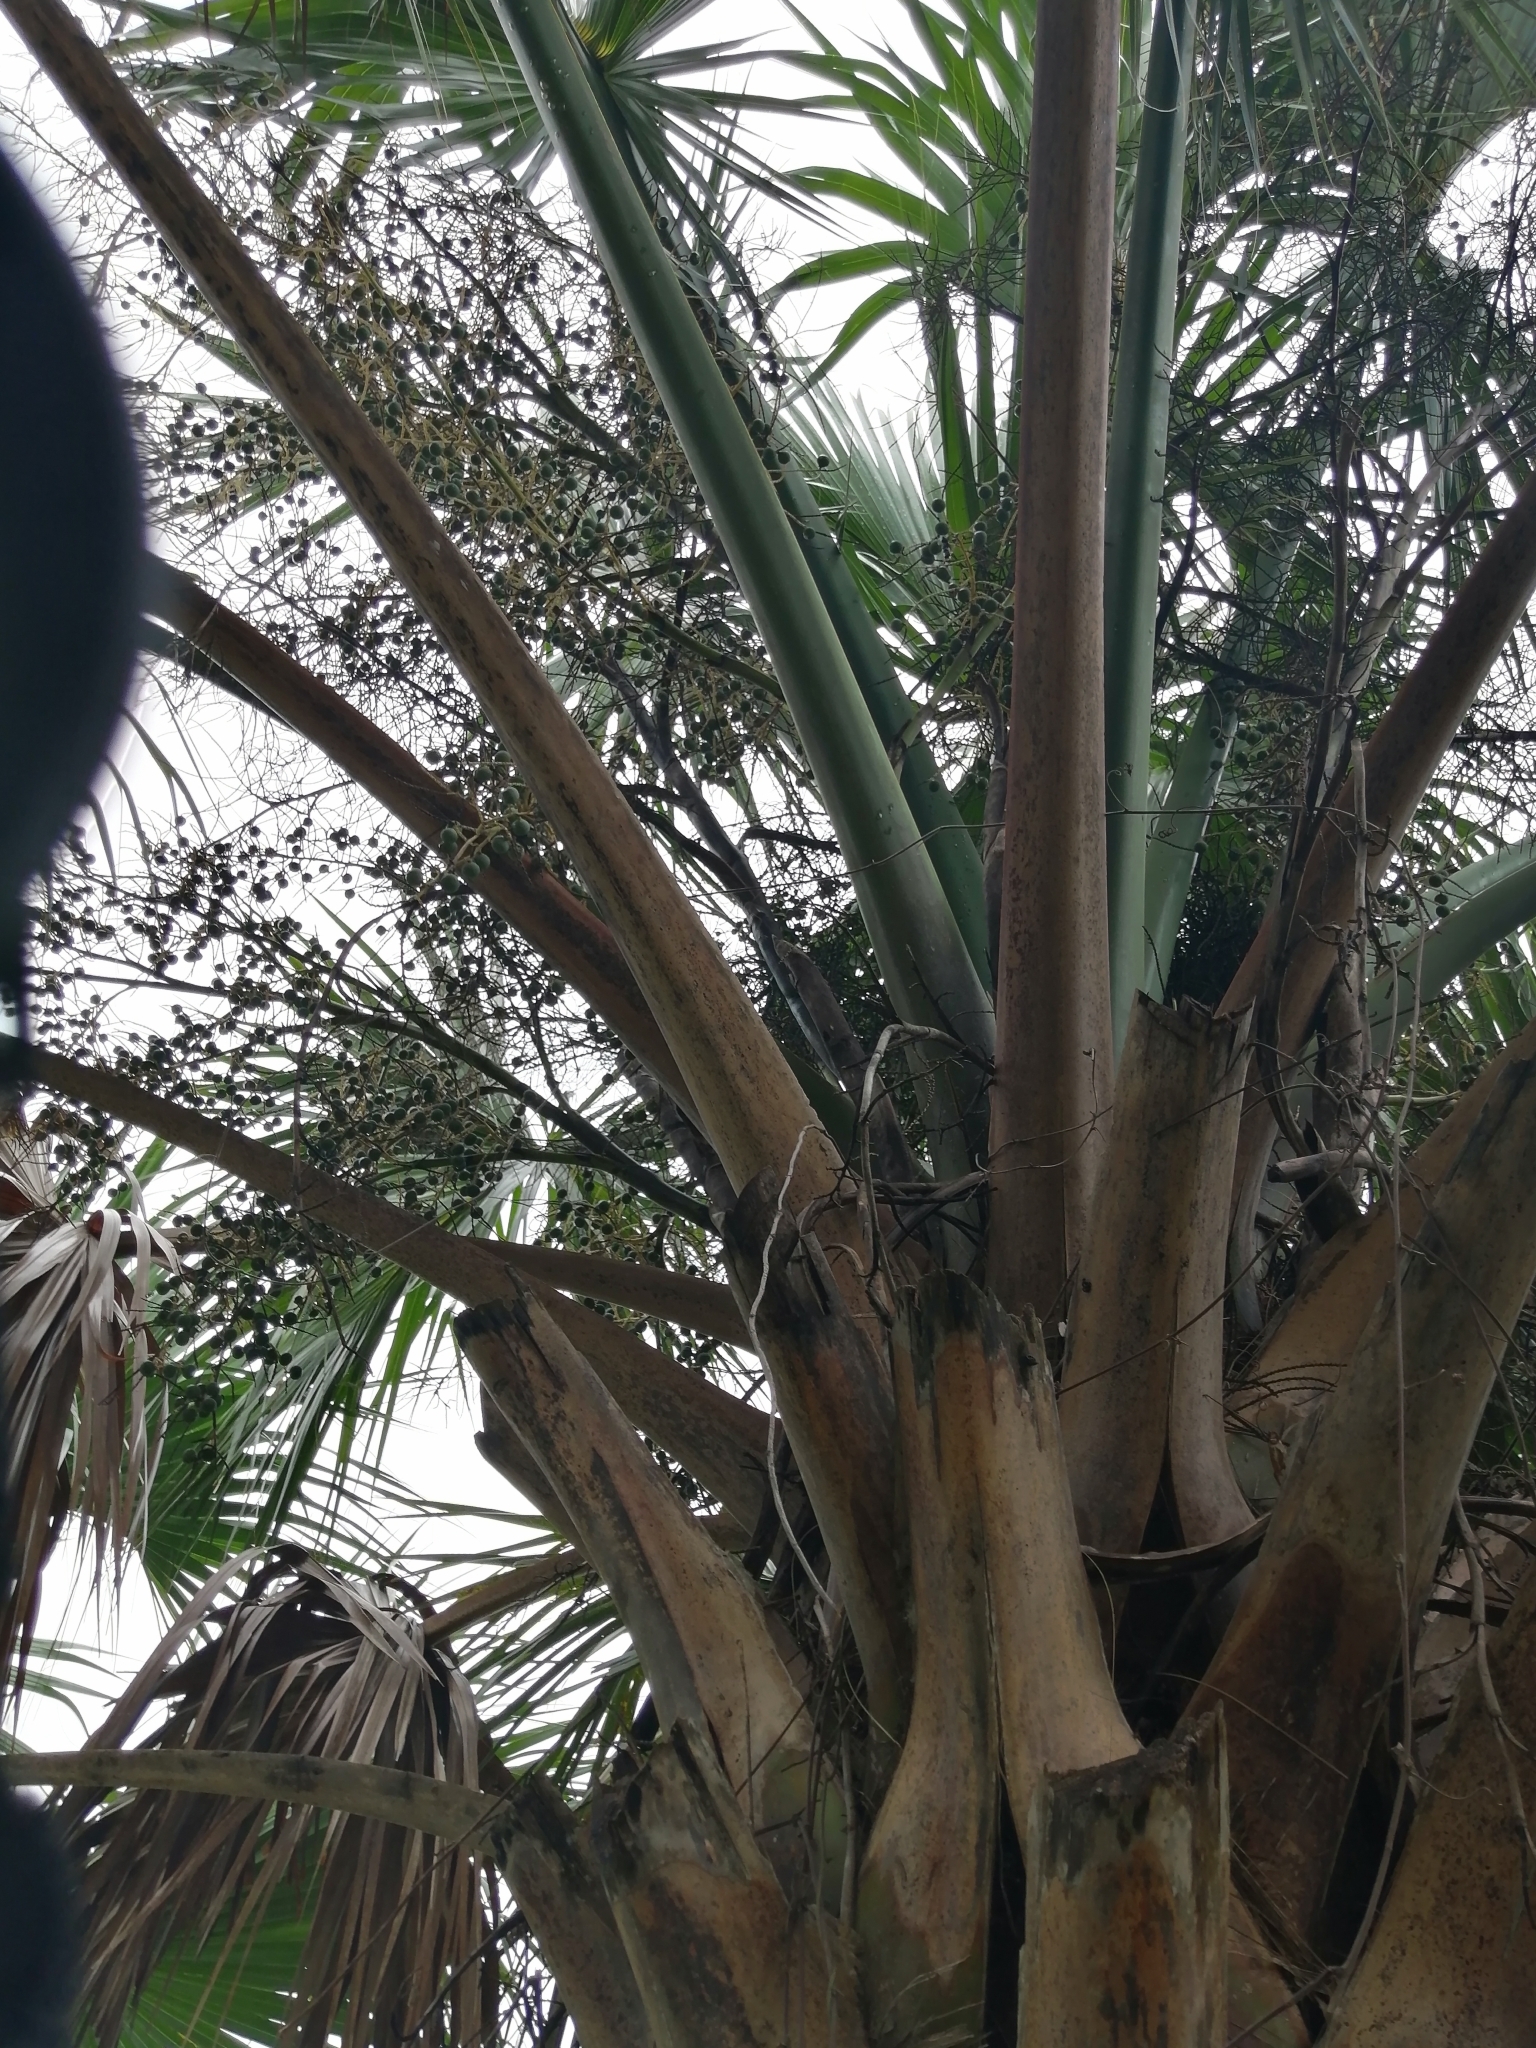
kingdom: Plantae
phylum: Tracheophyta
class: Liliopsida
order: Arecales
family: Arecaceae
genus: Sabal
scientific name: Sabal mexicana
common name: Texas palmetto
